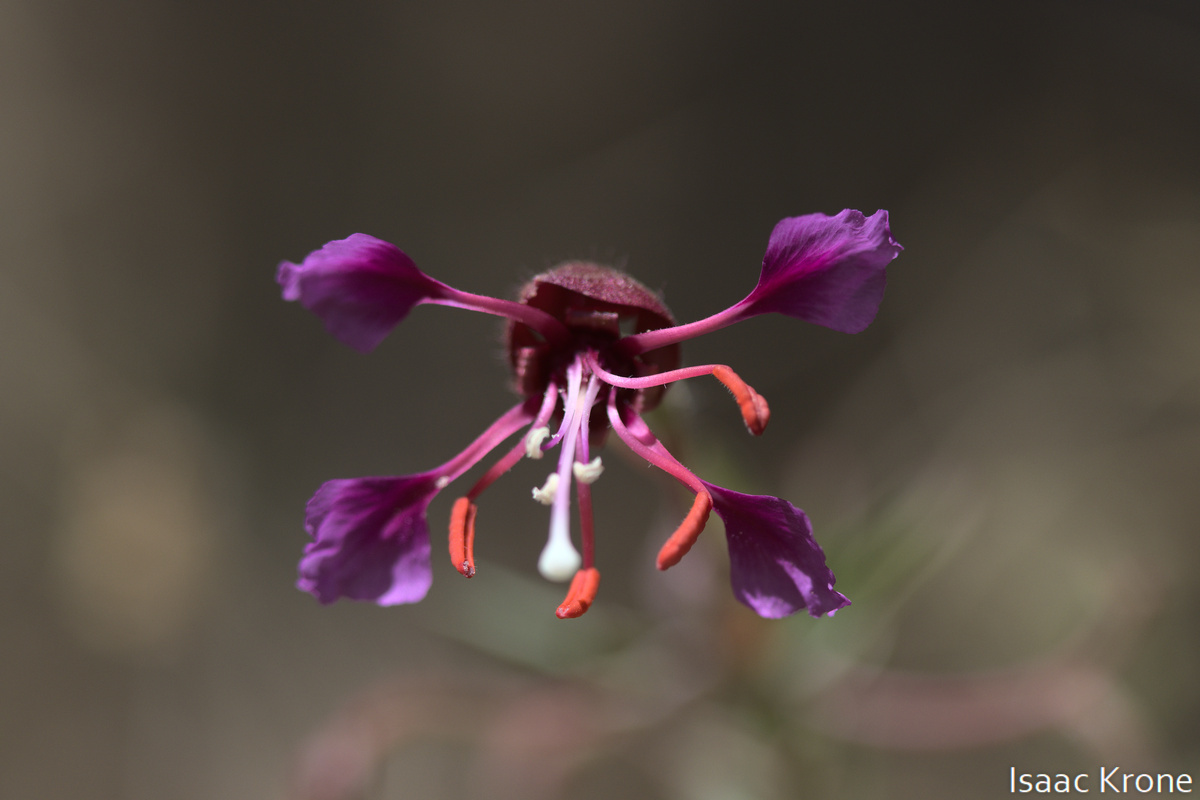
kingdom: Plantae
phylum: Tracheophyta
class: Magnoliopsida
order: Myrtales
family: Onagraceae
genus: Clarkia
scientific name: Clarkia unguiculata
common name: Clarkia
